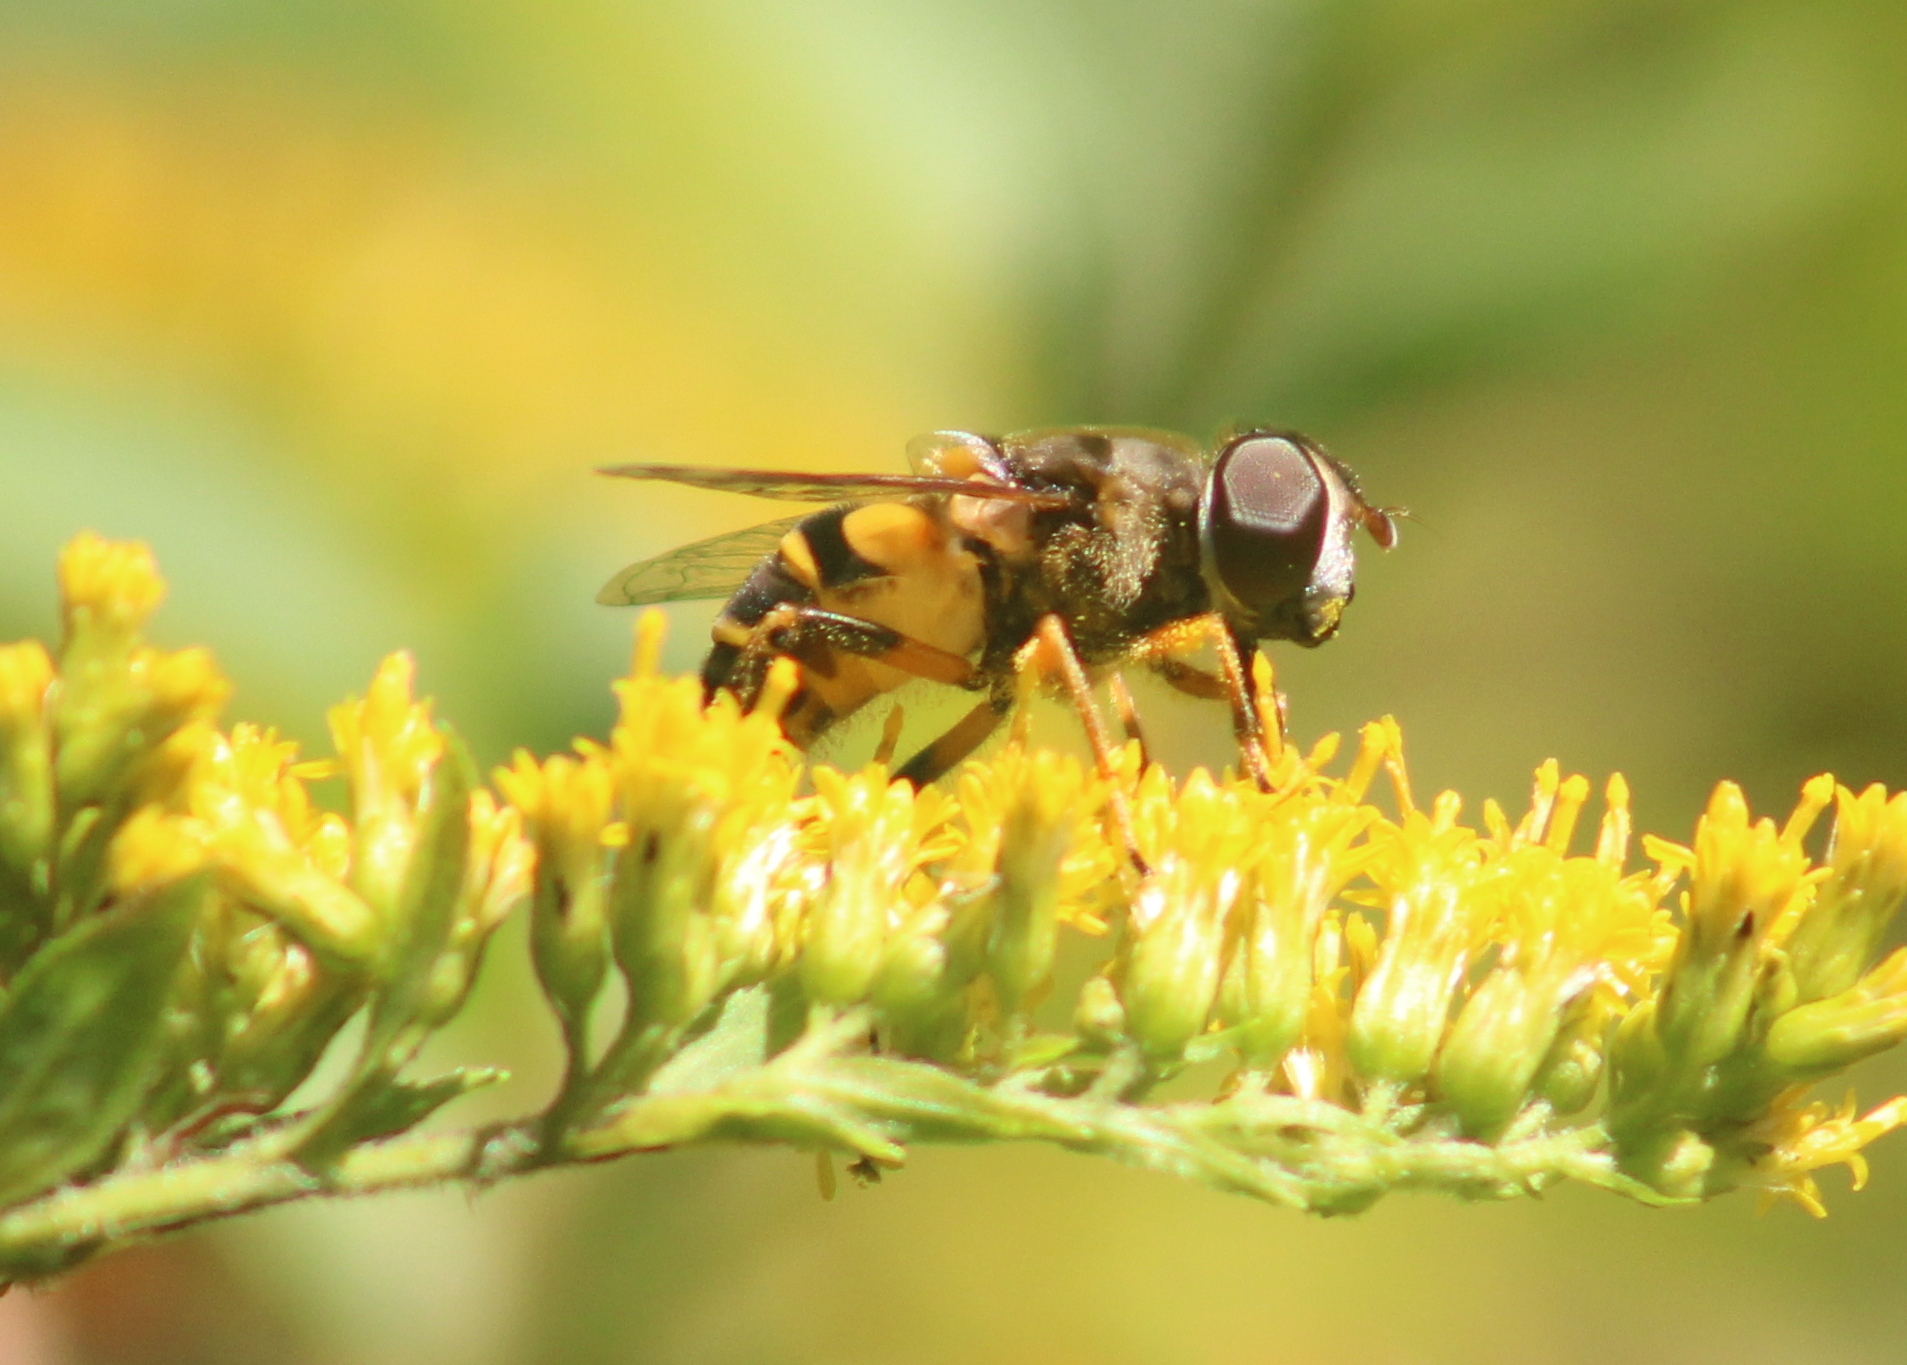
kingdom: Animalia
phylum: Arthropoda
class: Insecta
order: Diptera
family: Syrphidae
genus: Eristalis
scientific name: Eristalis transversa
